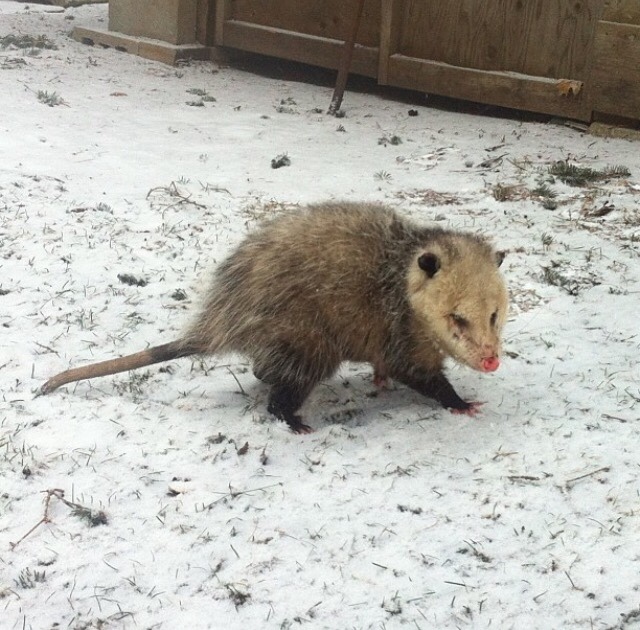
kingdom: Animalia
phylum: Chordata
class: Mammalia
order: Didelphimorphia
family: Didelphidae
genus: Didelphis
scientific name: Didelphis virginiana
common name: Virginia opossum
